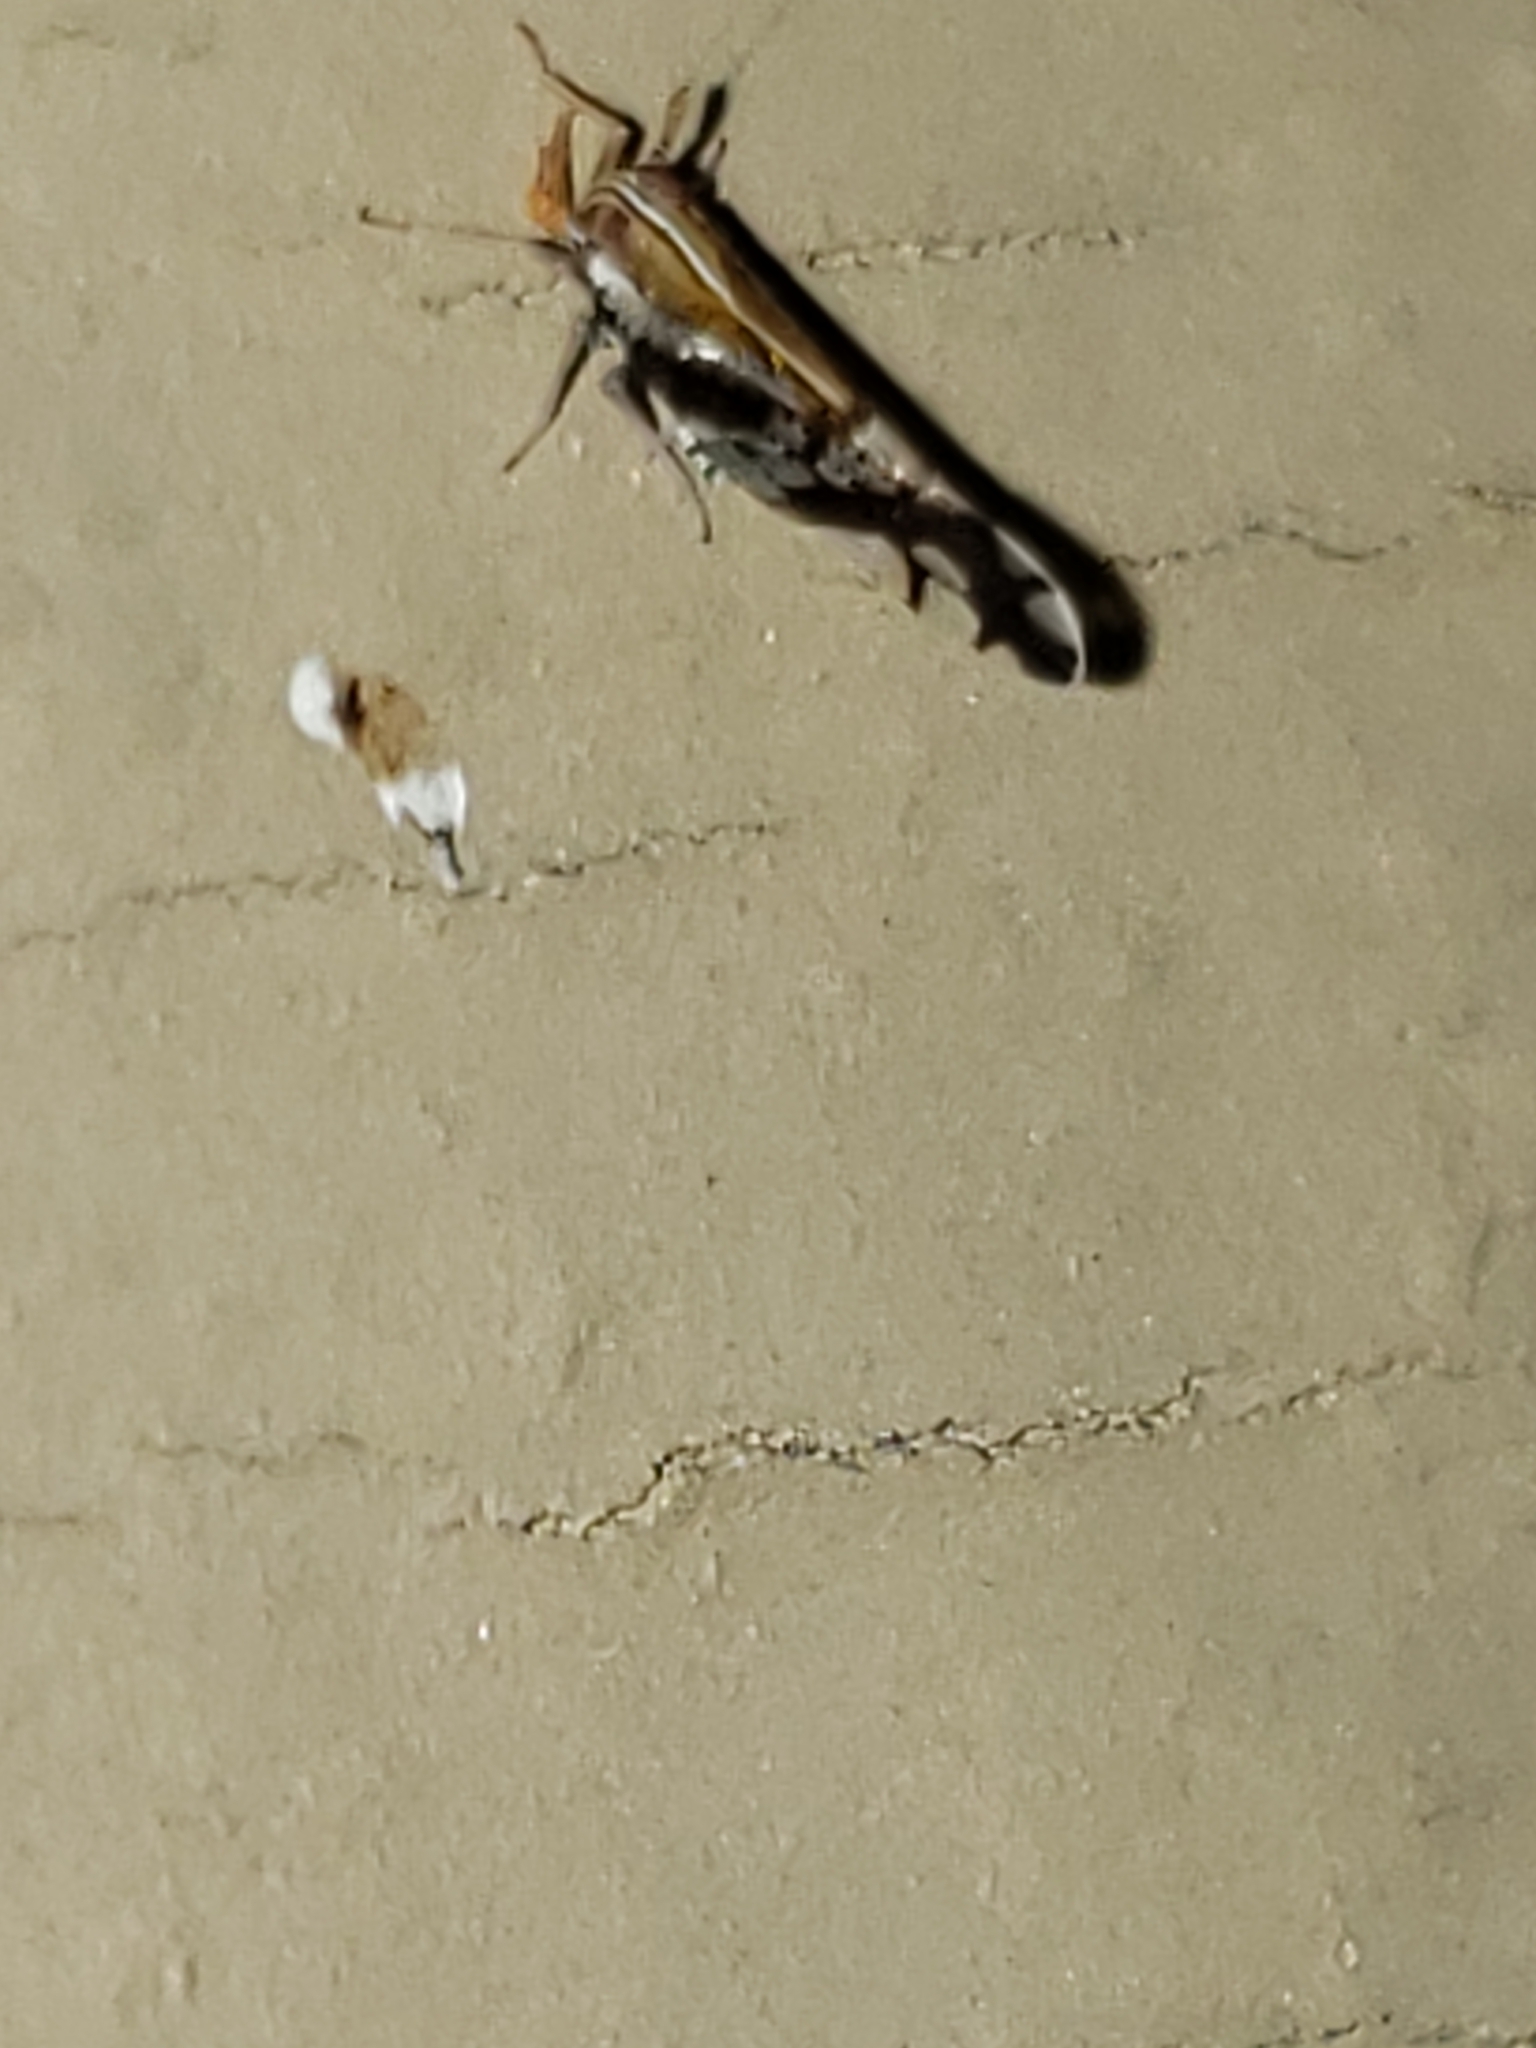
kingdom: Animalia
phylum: Arthropoda
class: Insecta
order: Hemiptera
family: Delphacidae
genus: Liburniella
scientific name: Liburniella ornata
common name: Ornate planthopper
